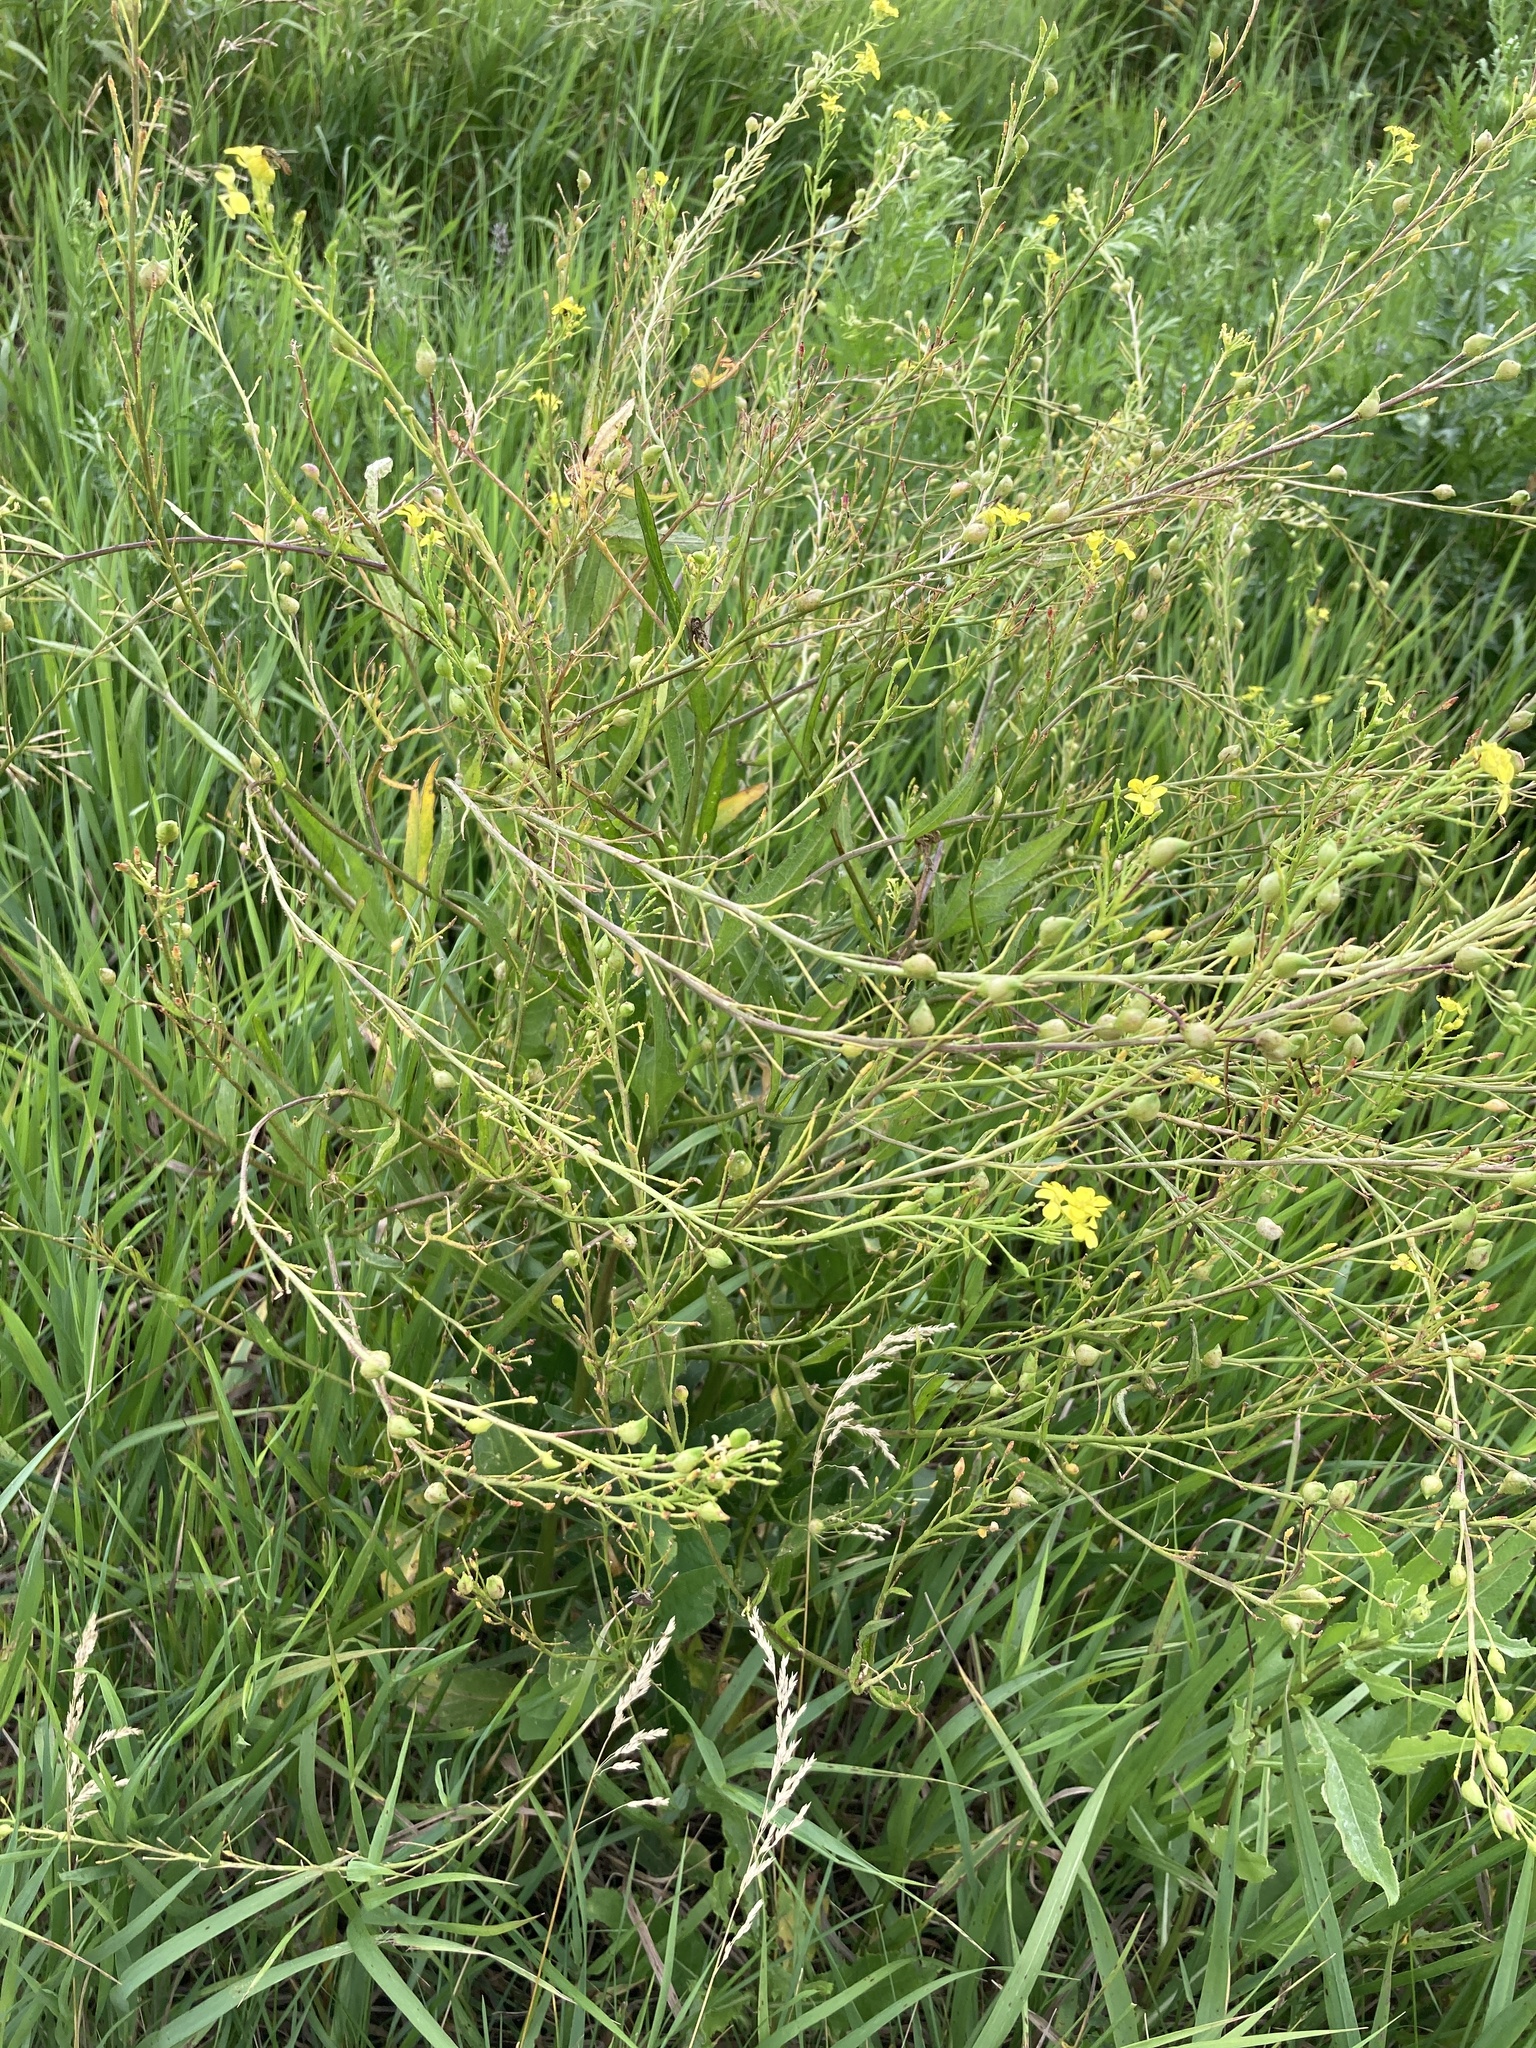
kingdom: Plantae
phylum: Tracheophyta
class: Magnoliopsida
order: Brassicales
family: Brassicaceae
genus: Bunias
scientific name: Bunias orientalis
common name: Warty-cabbage
